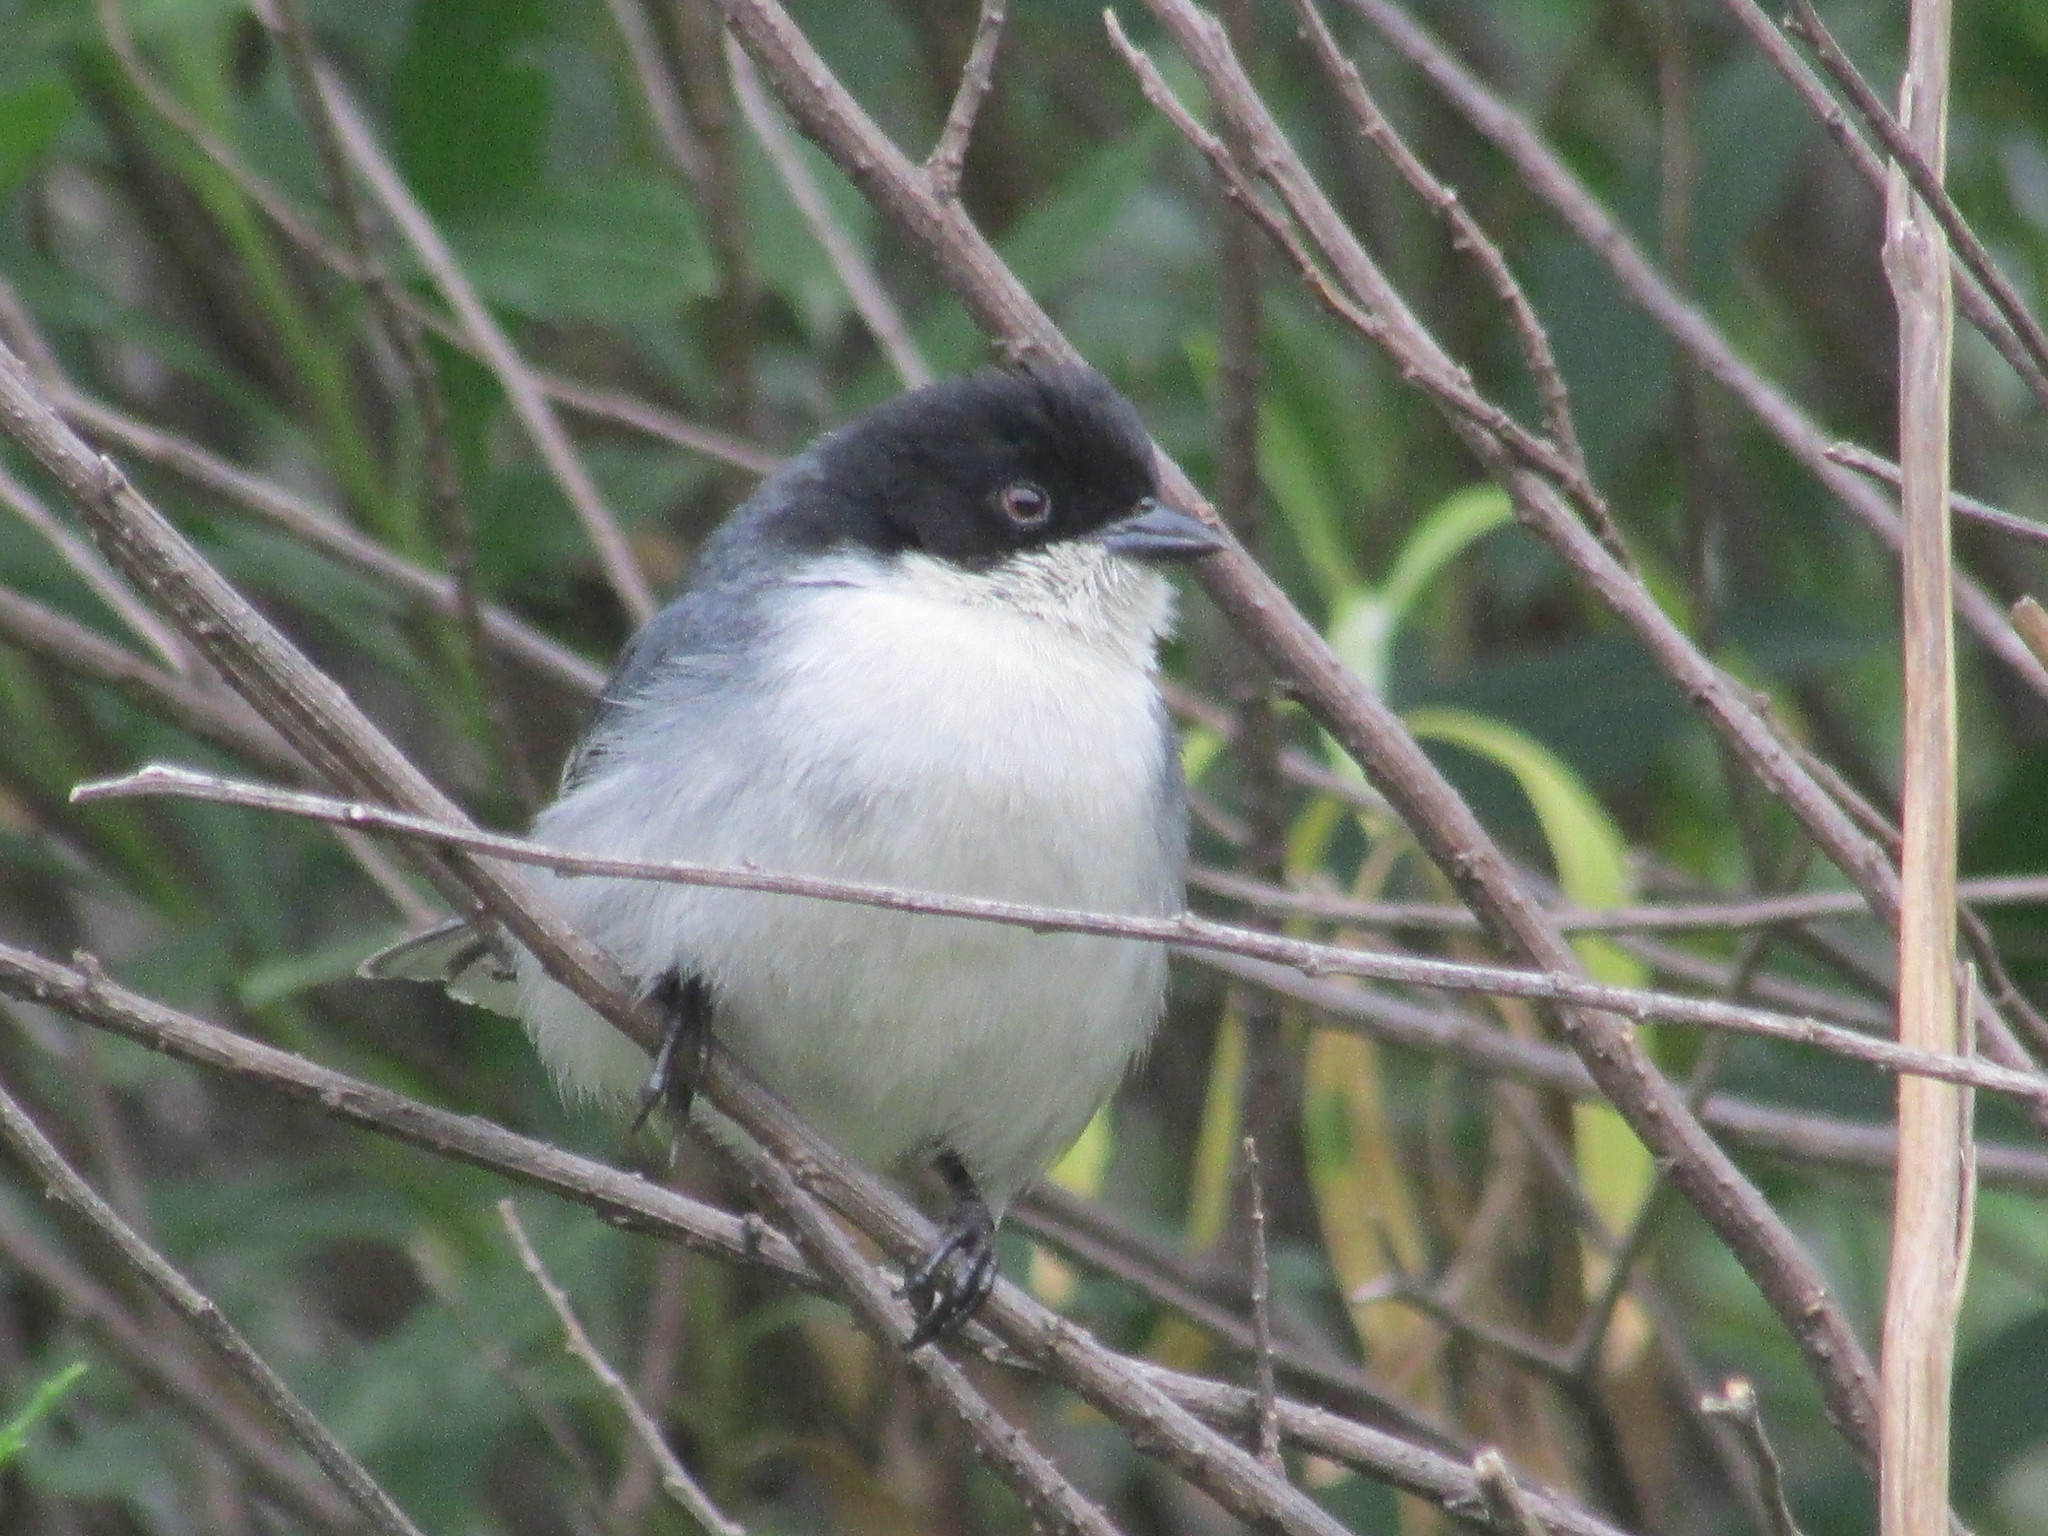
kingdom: Animalia
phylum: Chordata
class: Aves
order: Passeriformes
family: Thraupidae
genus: Microspingus
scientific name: Microspingus melanoleucus
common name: Black-capped warbling-finch
